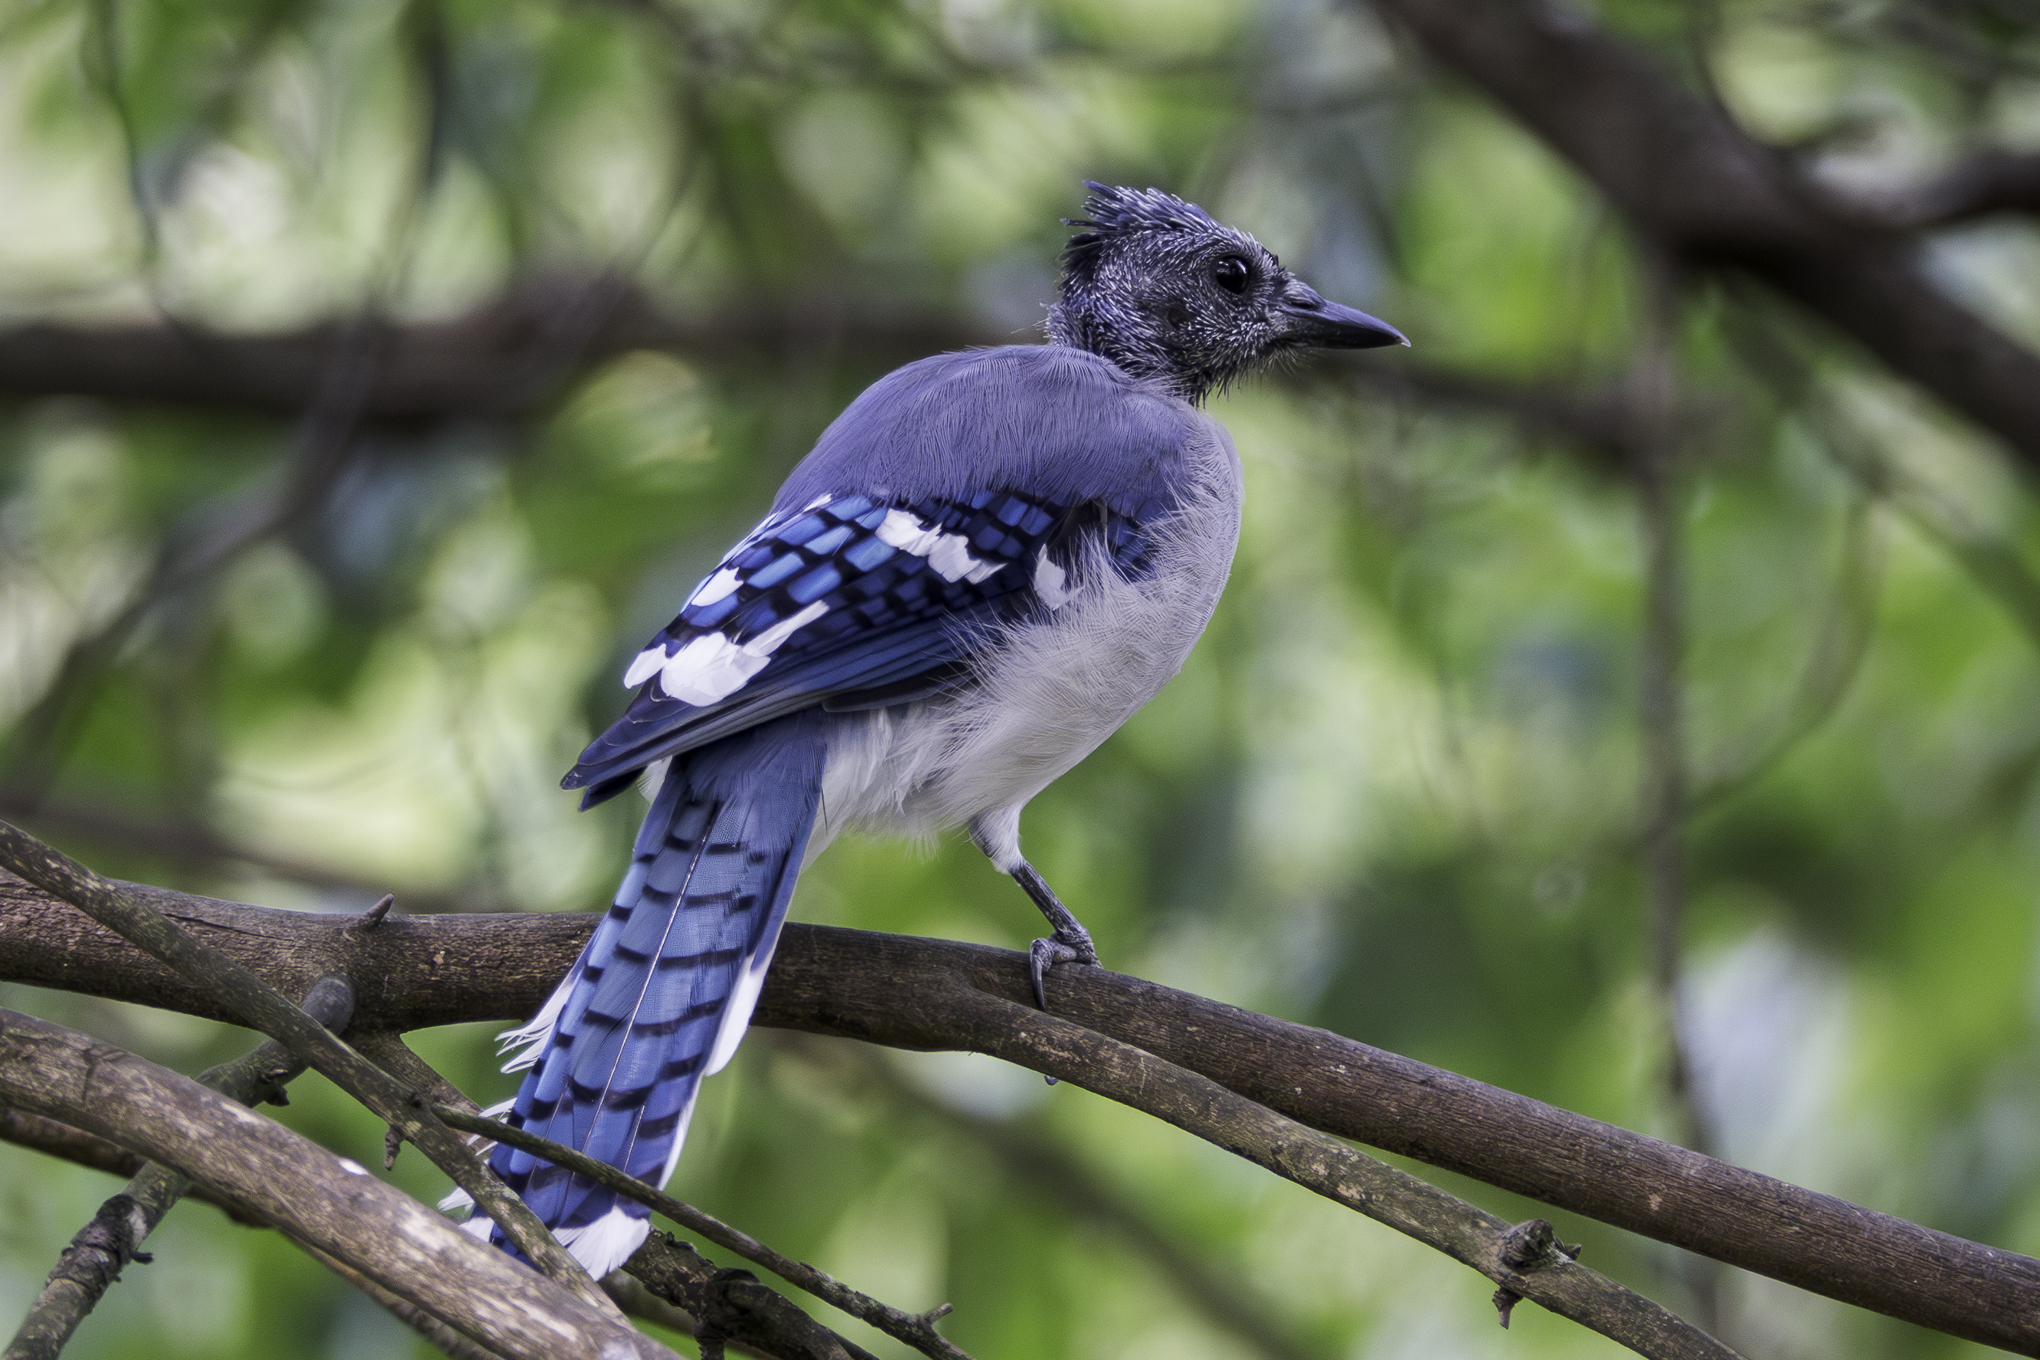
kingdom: Animalia
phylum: Chordata
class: Aves
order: Passeriformes
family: Corvidae
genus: Cyanocitta
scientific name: Cyanocitta cristata
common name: Blue jay
